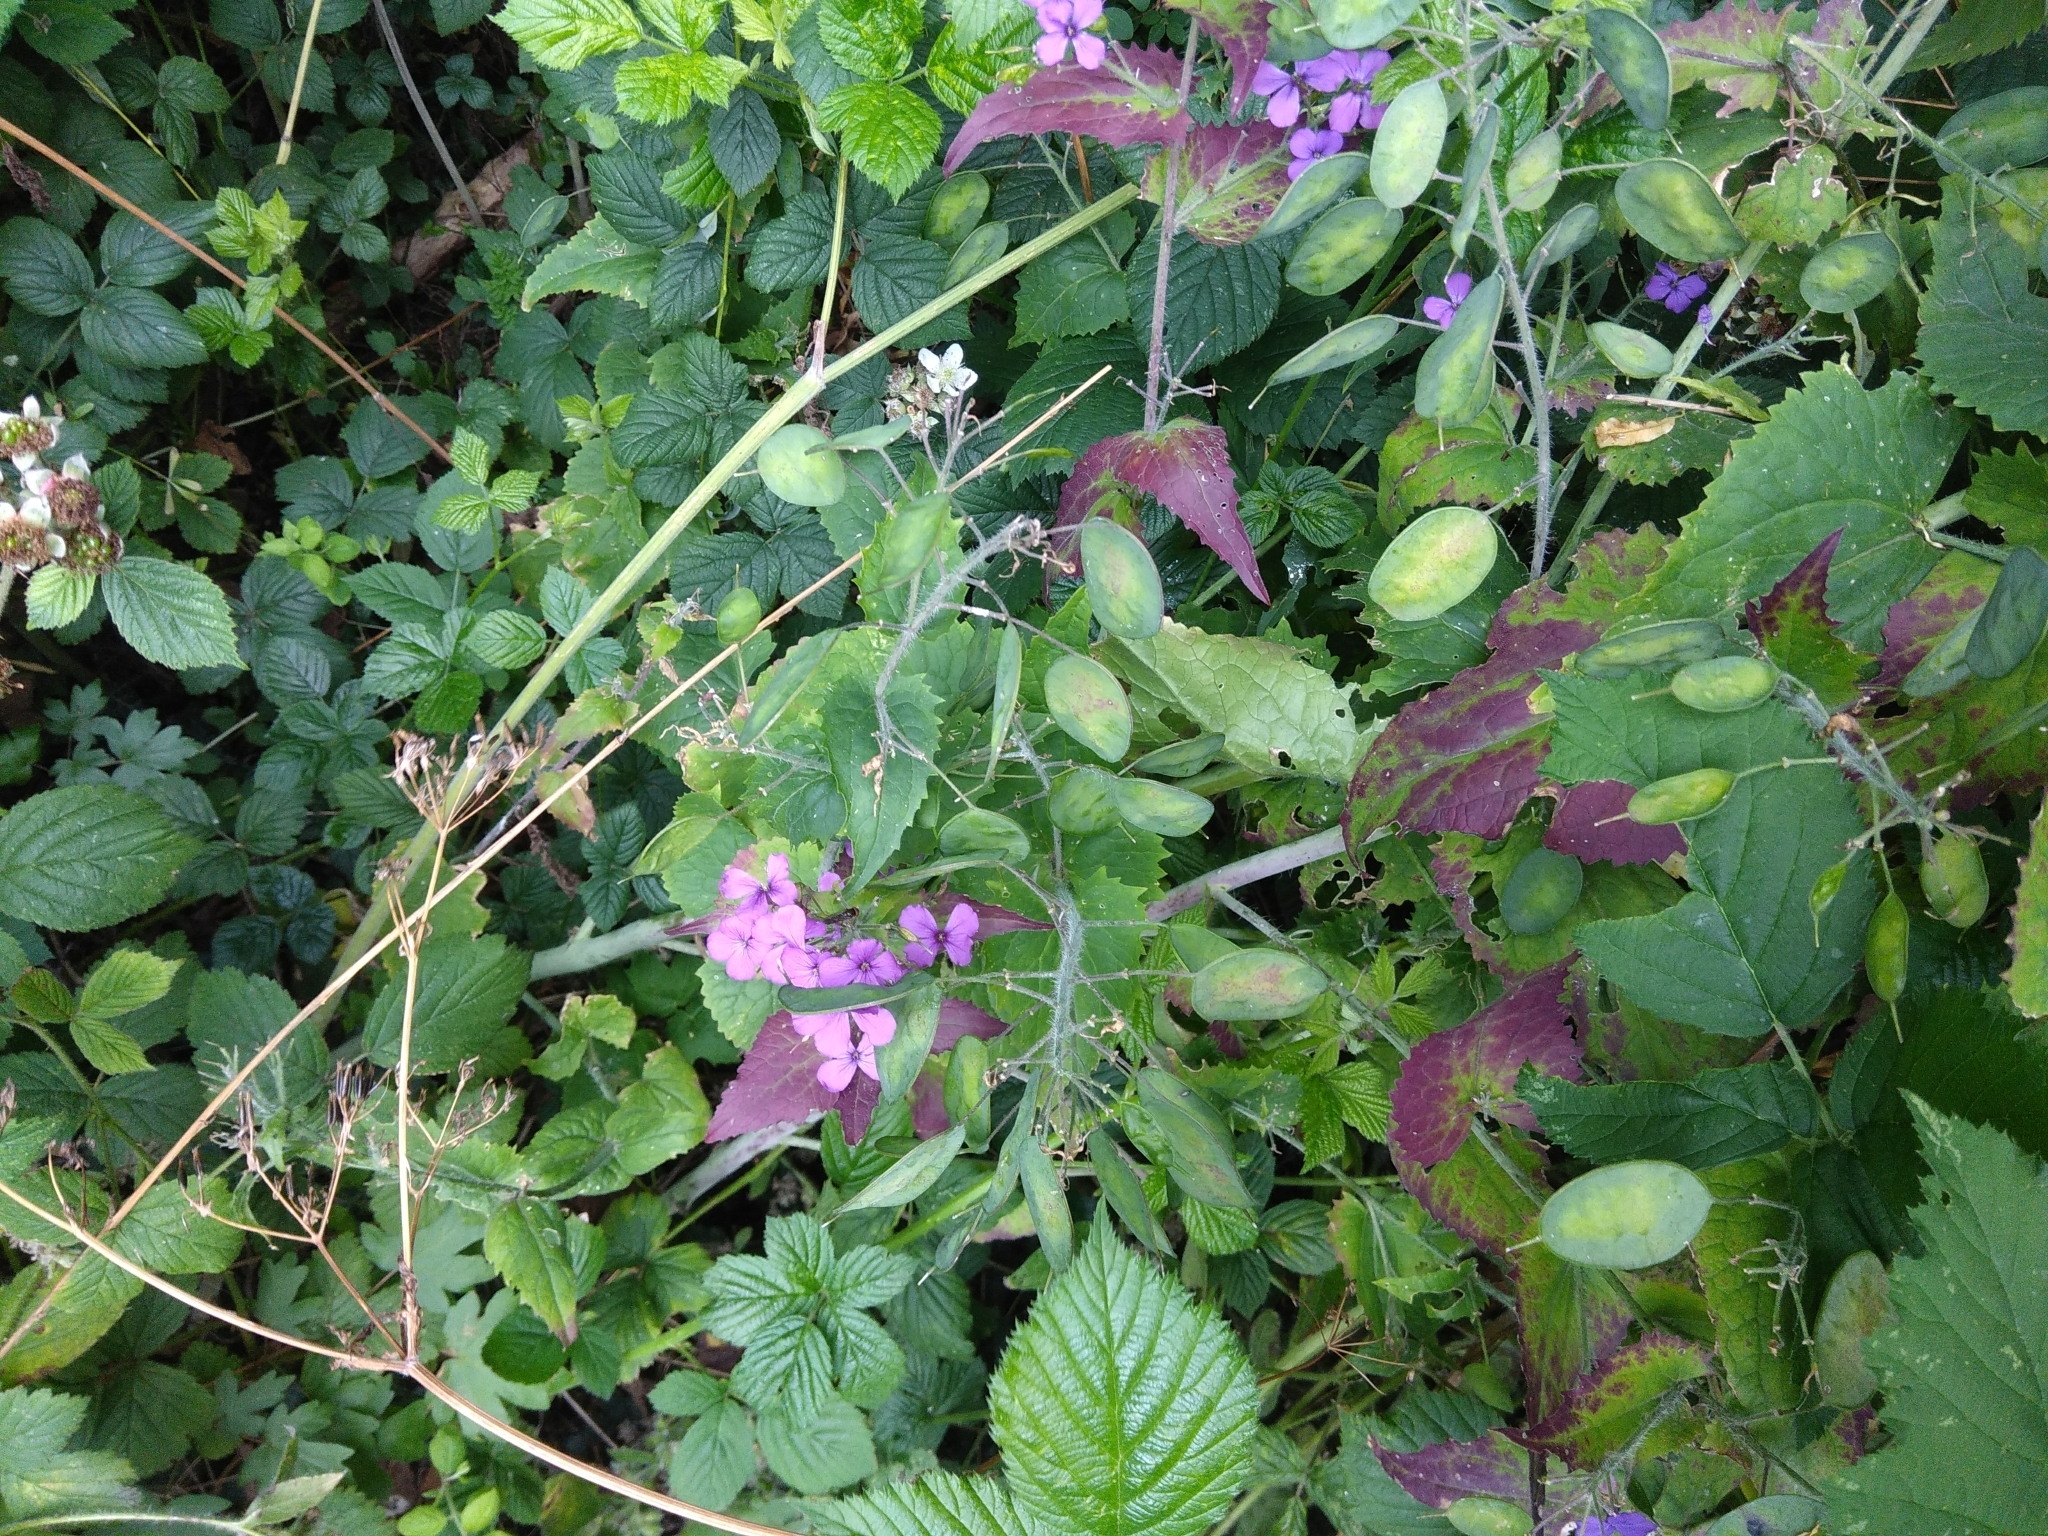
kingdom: Plantae
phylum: Tracheophyta
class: Magnoliopsida
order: Brassicales
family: Brassicaceae
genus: Lunaria
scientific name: Lunaria annua
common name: Honesty
